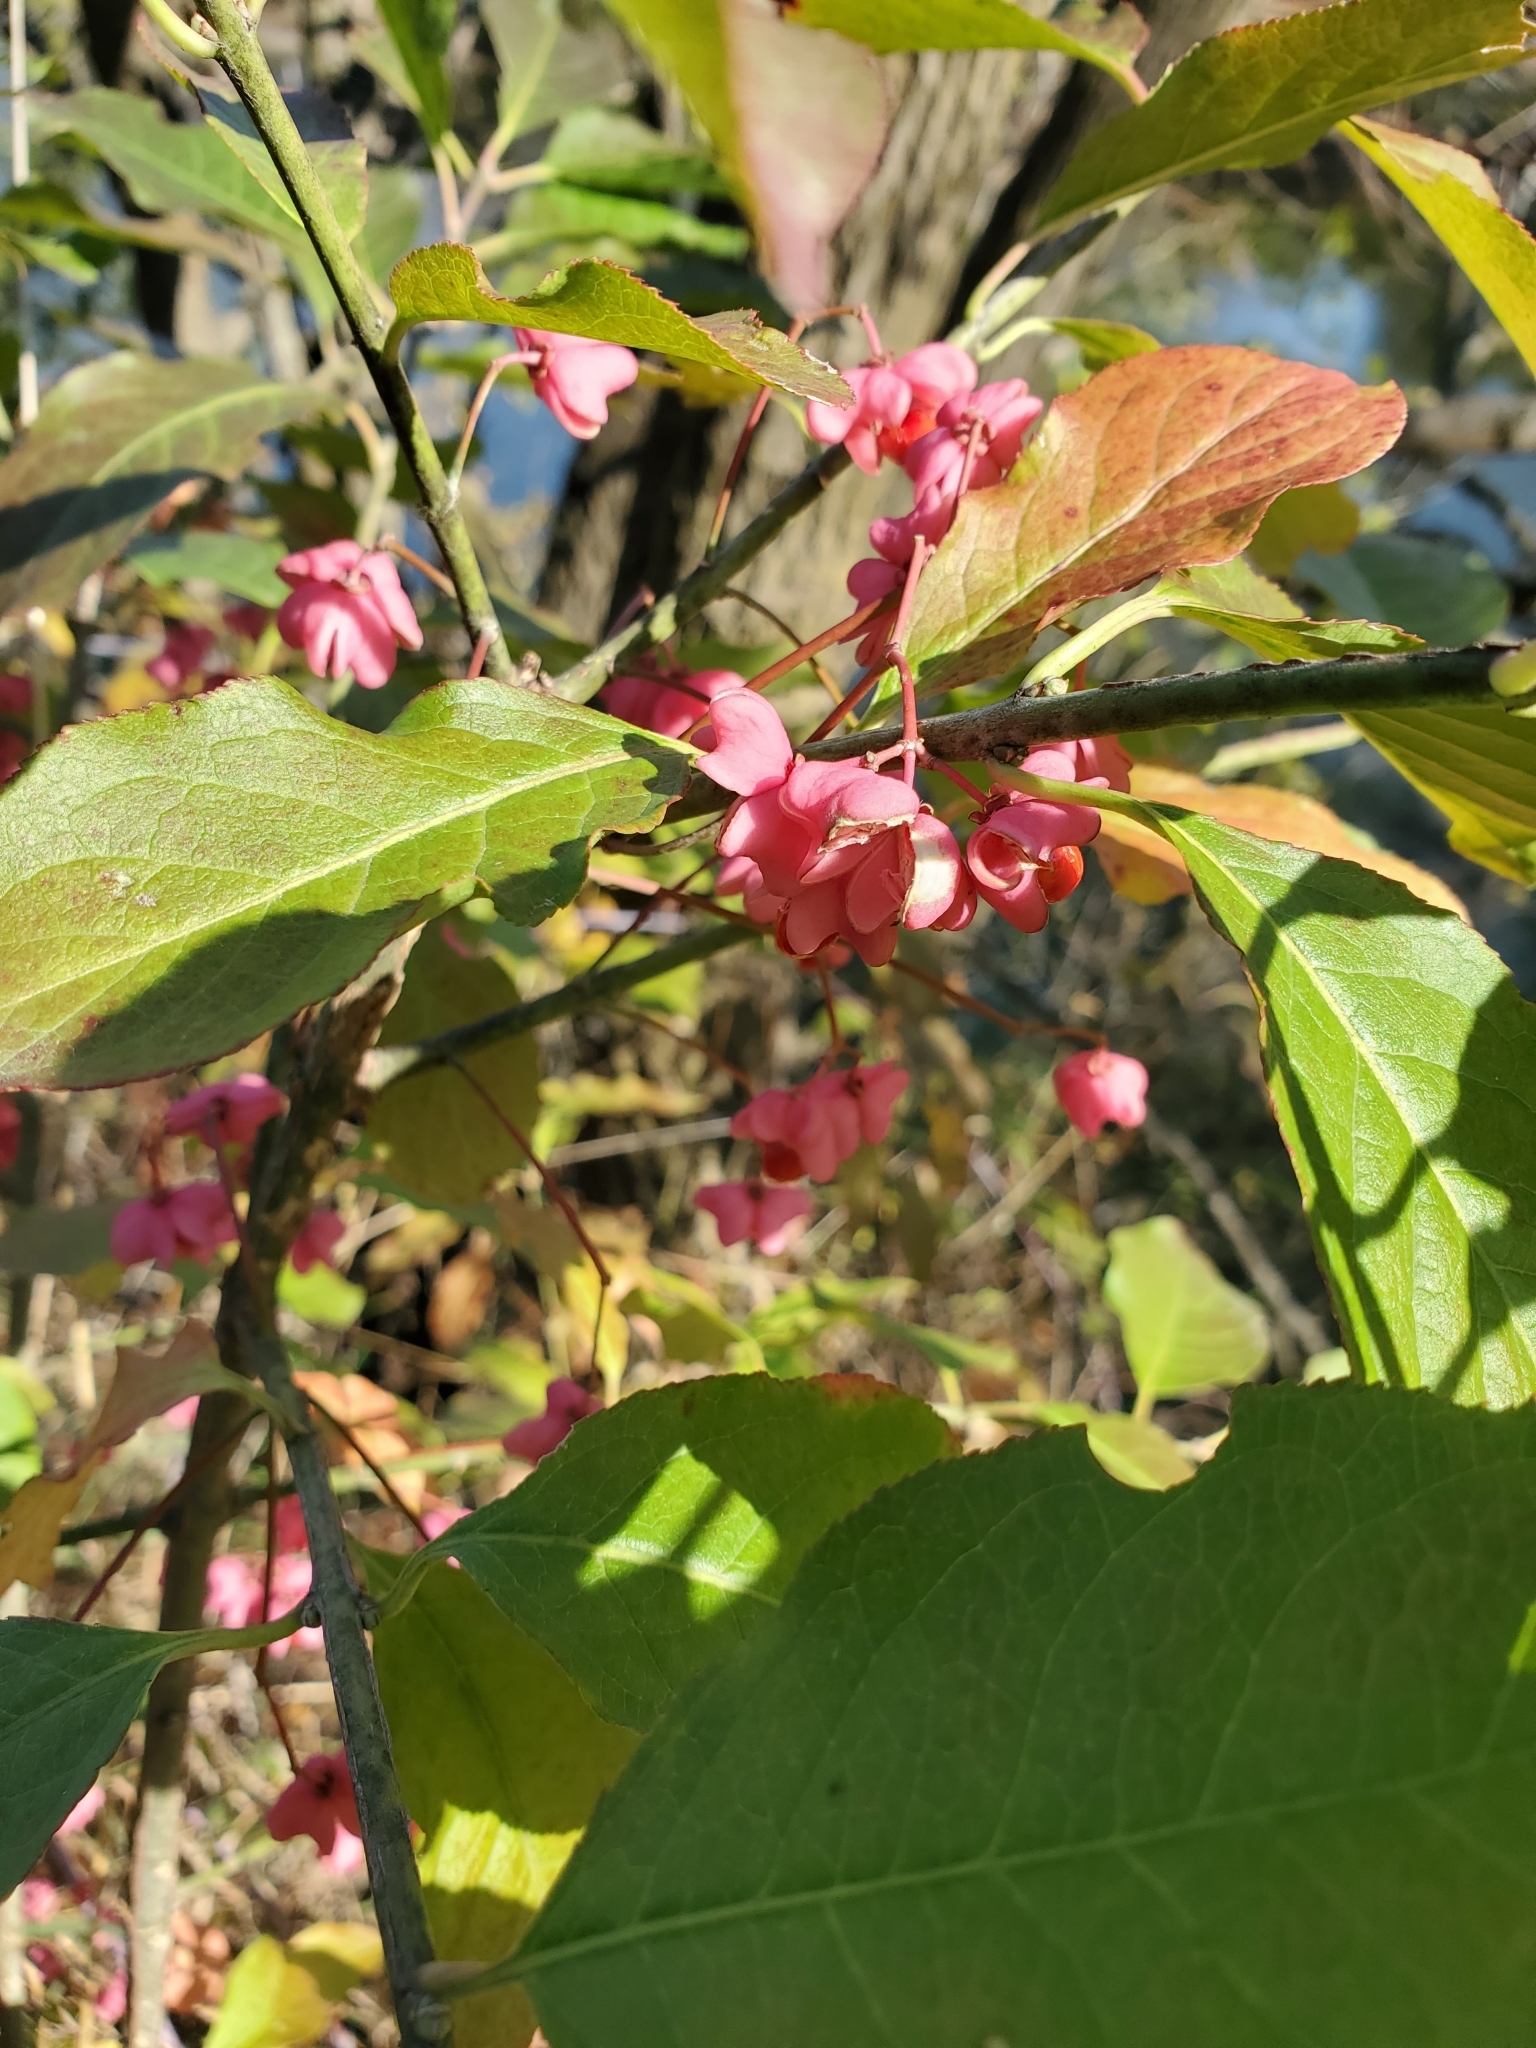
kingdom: Plantae
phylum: Tracheophyta
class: Magnoliopsida
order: Celastrales
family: Celastraceae
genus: Euonymus
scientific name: Euonymus europaeus
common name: Spindle
